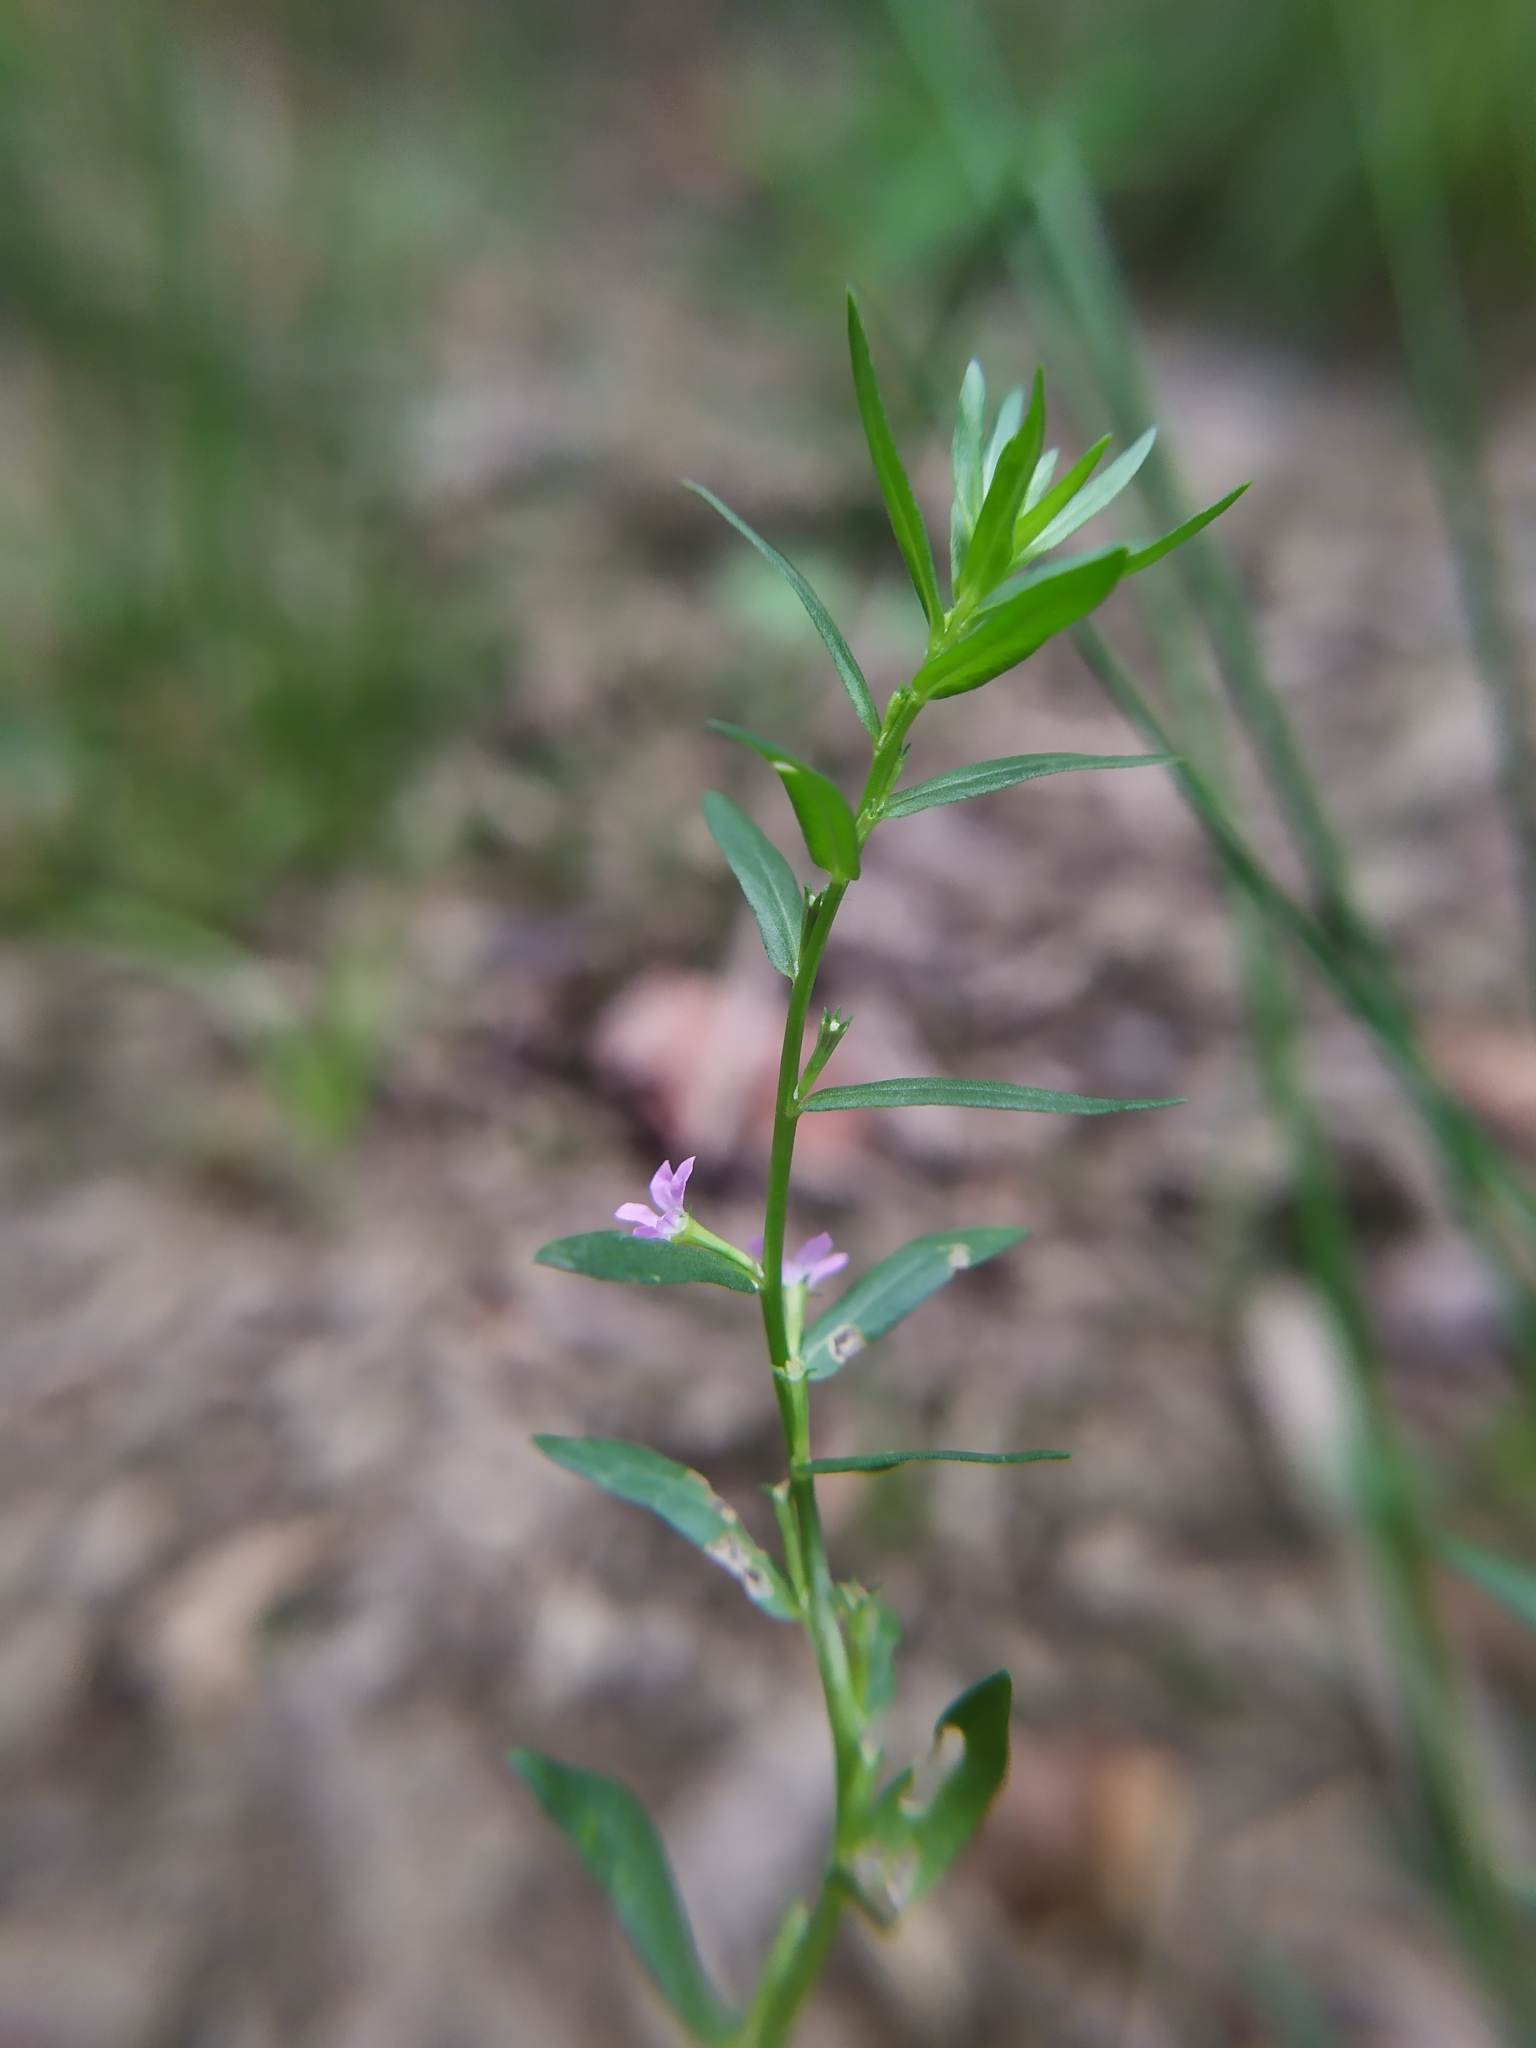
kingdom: Plantae
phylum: Tracheophyta
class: Magnoliopsida
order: Myrtales
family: Lythraceae
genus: Lythrum
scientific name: Lythrum hyssopifolia
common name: Grass-poly
